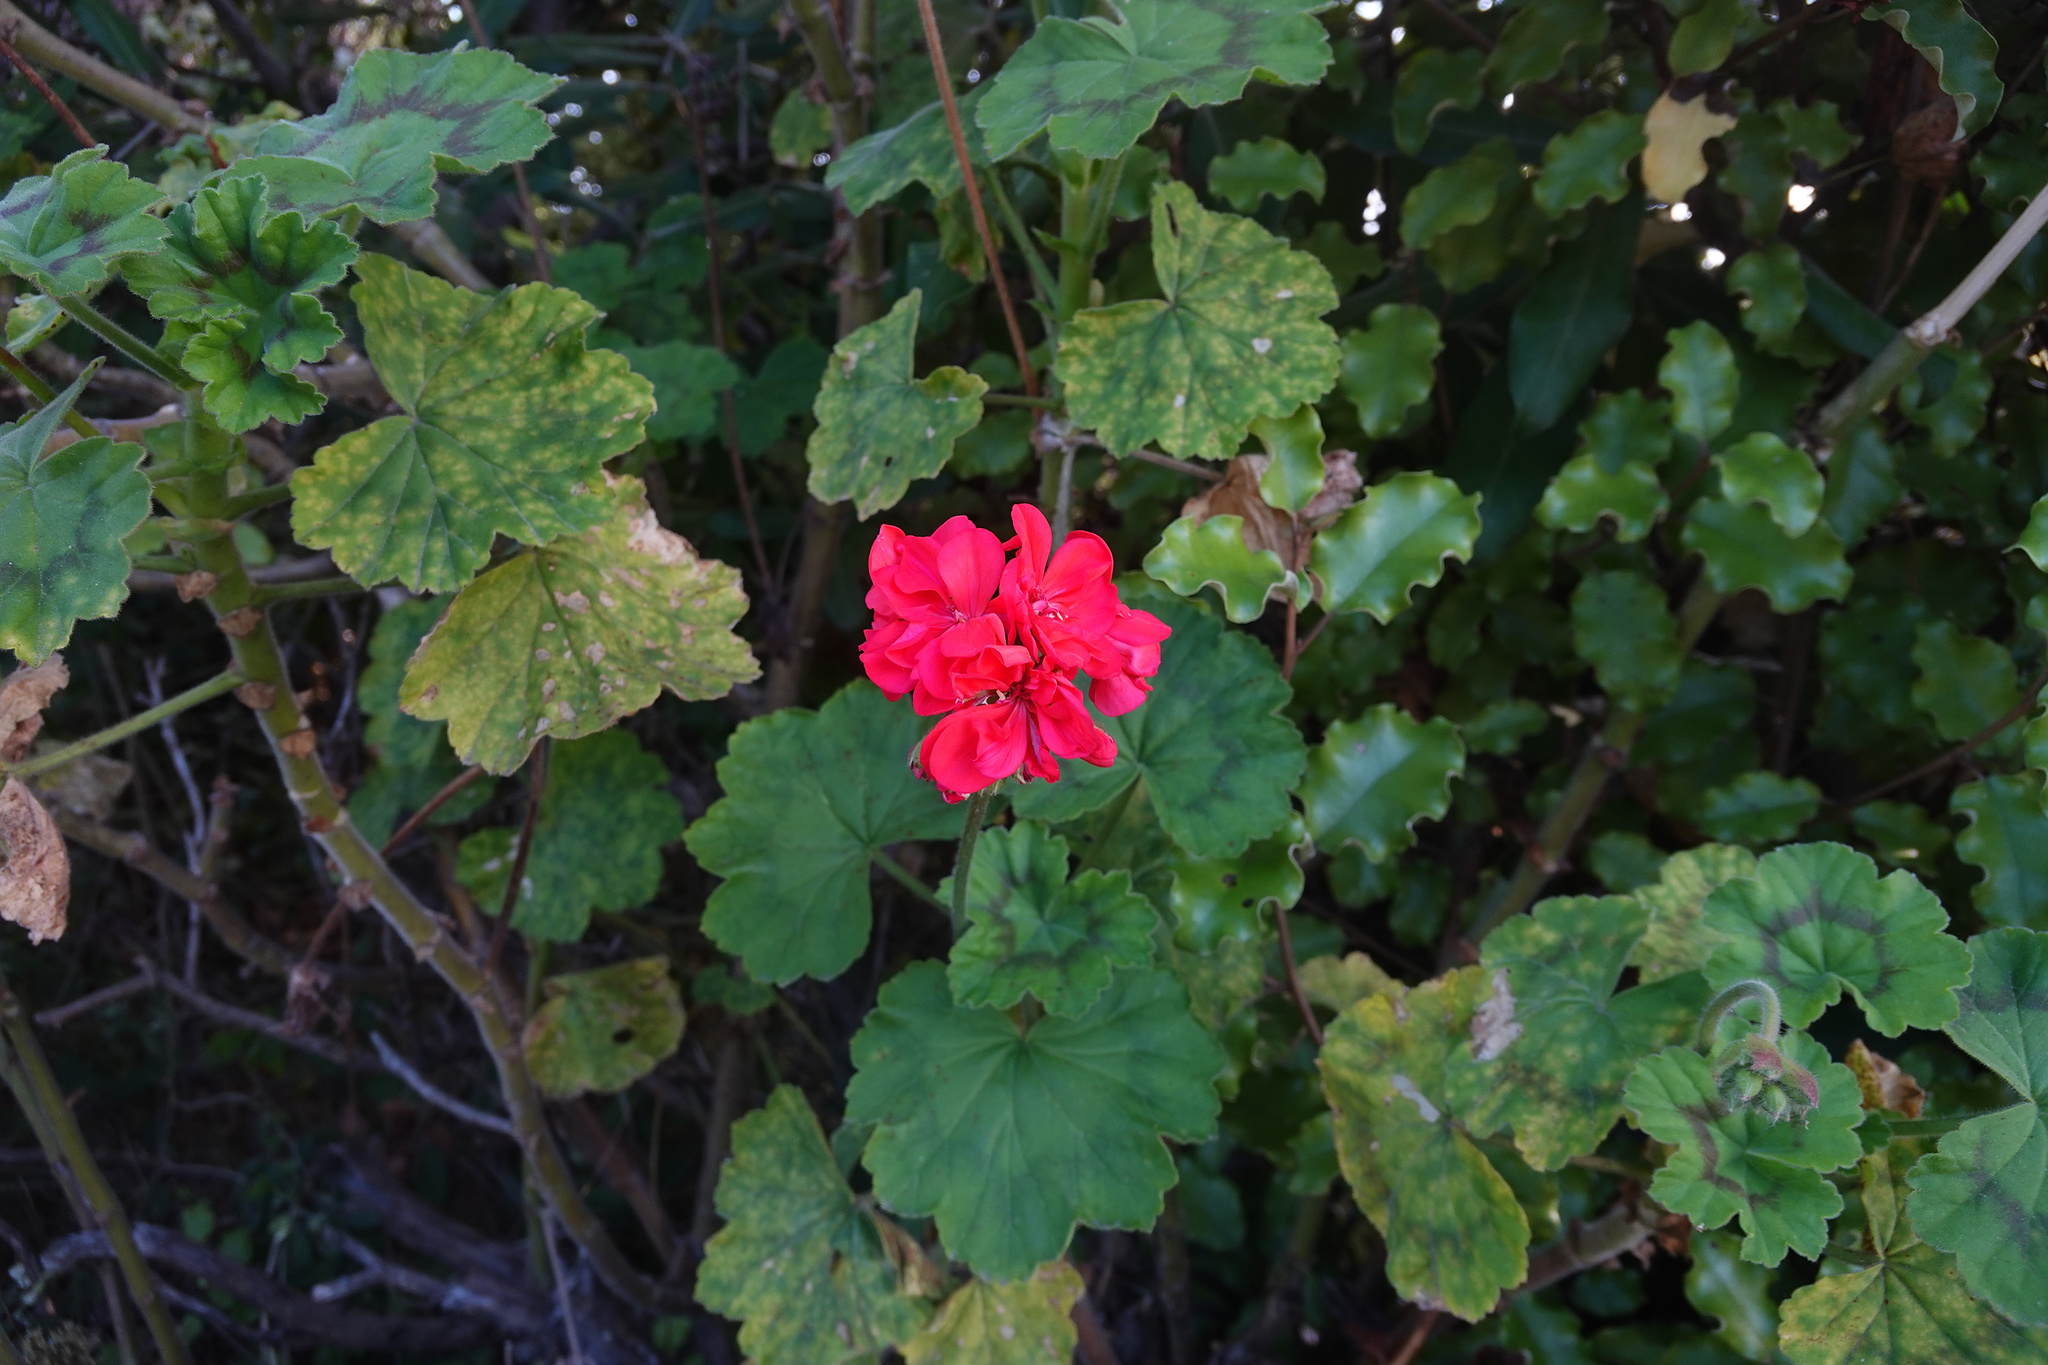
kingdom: Plantae
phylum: Tracheophyta
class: Magnoliopsida
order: Geraniales
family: Geraniaceae
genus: Pelargonium
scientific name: Pelargonium hybridum
